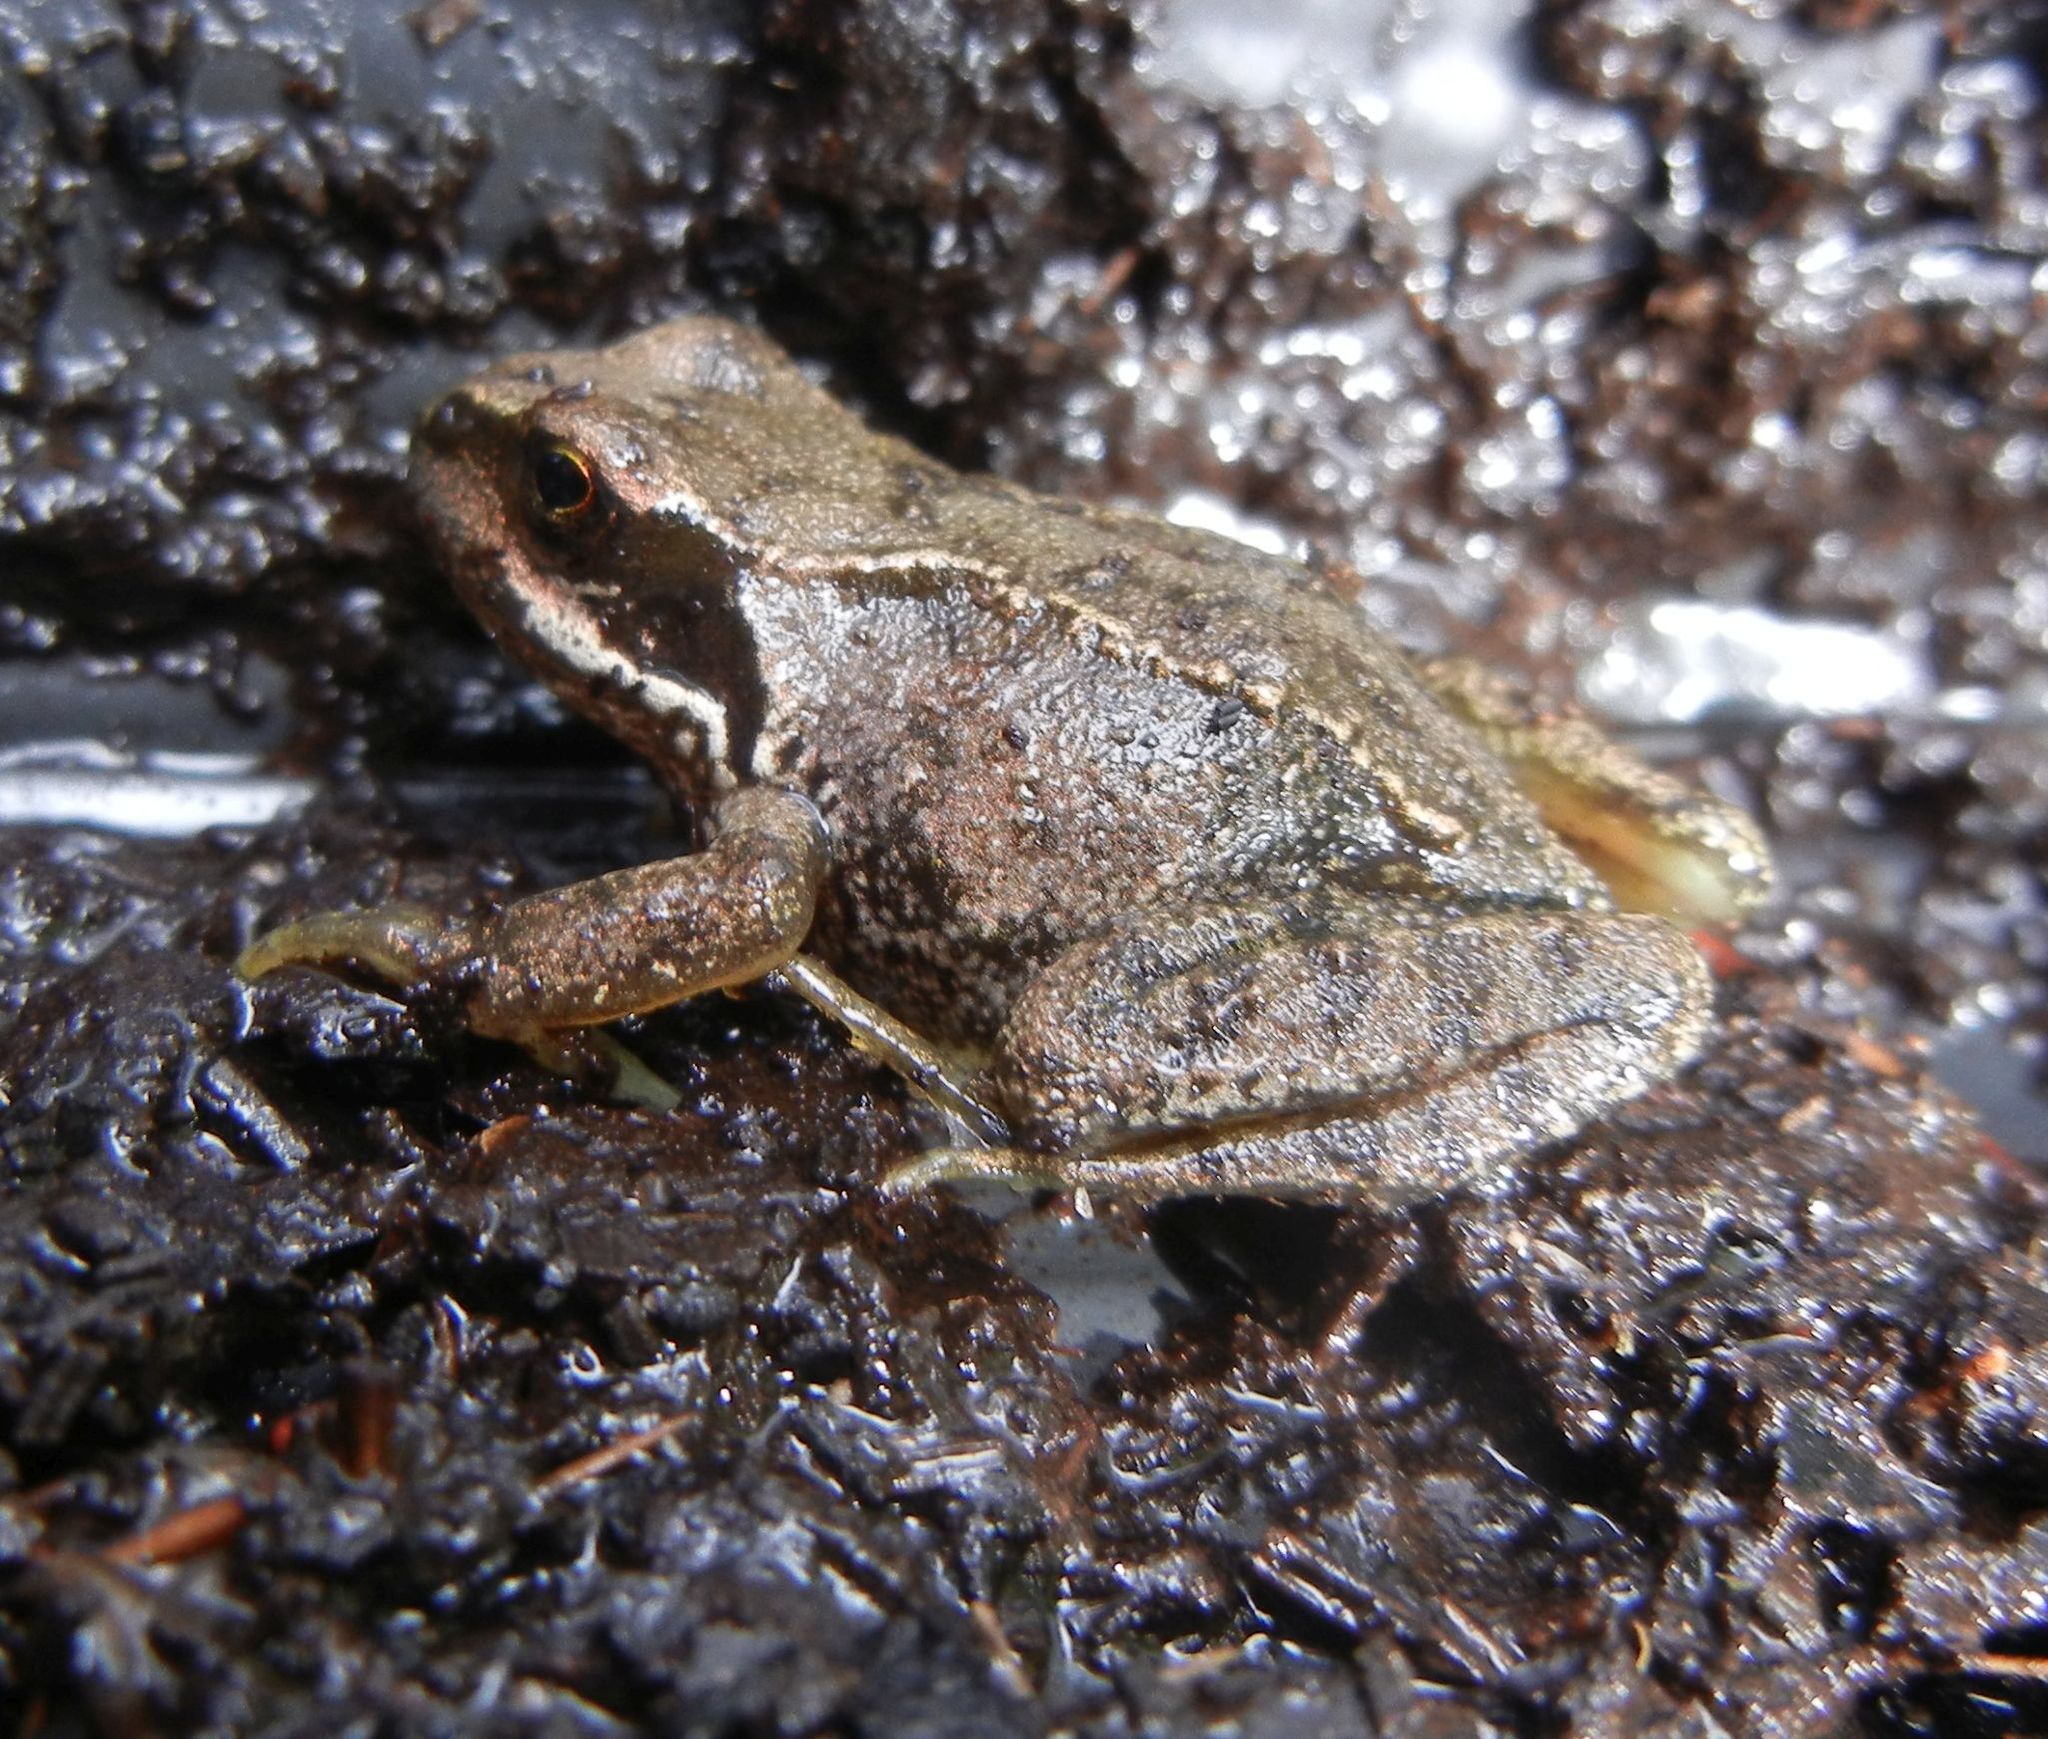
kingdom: Animalia
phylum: Chordata
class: Amphibia
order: Anura
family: Ranidae
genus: Rana
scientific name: Rana temporaria
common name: Common frog
